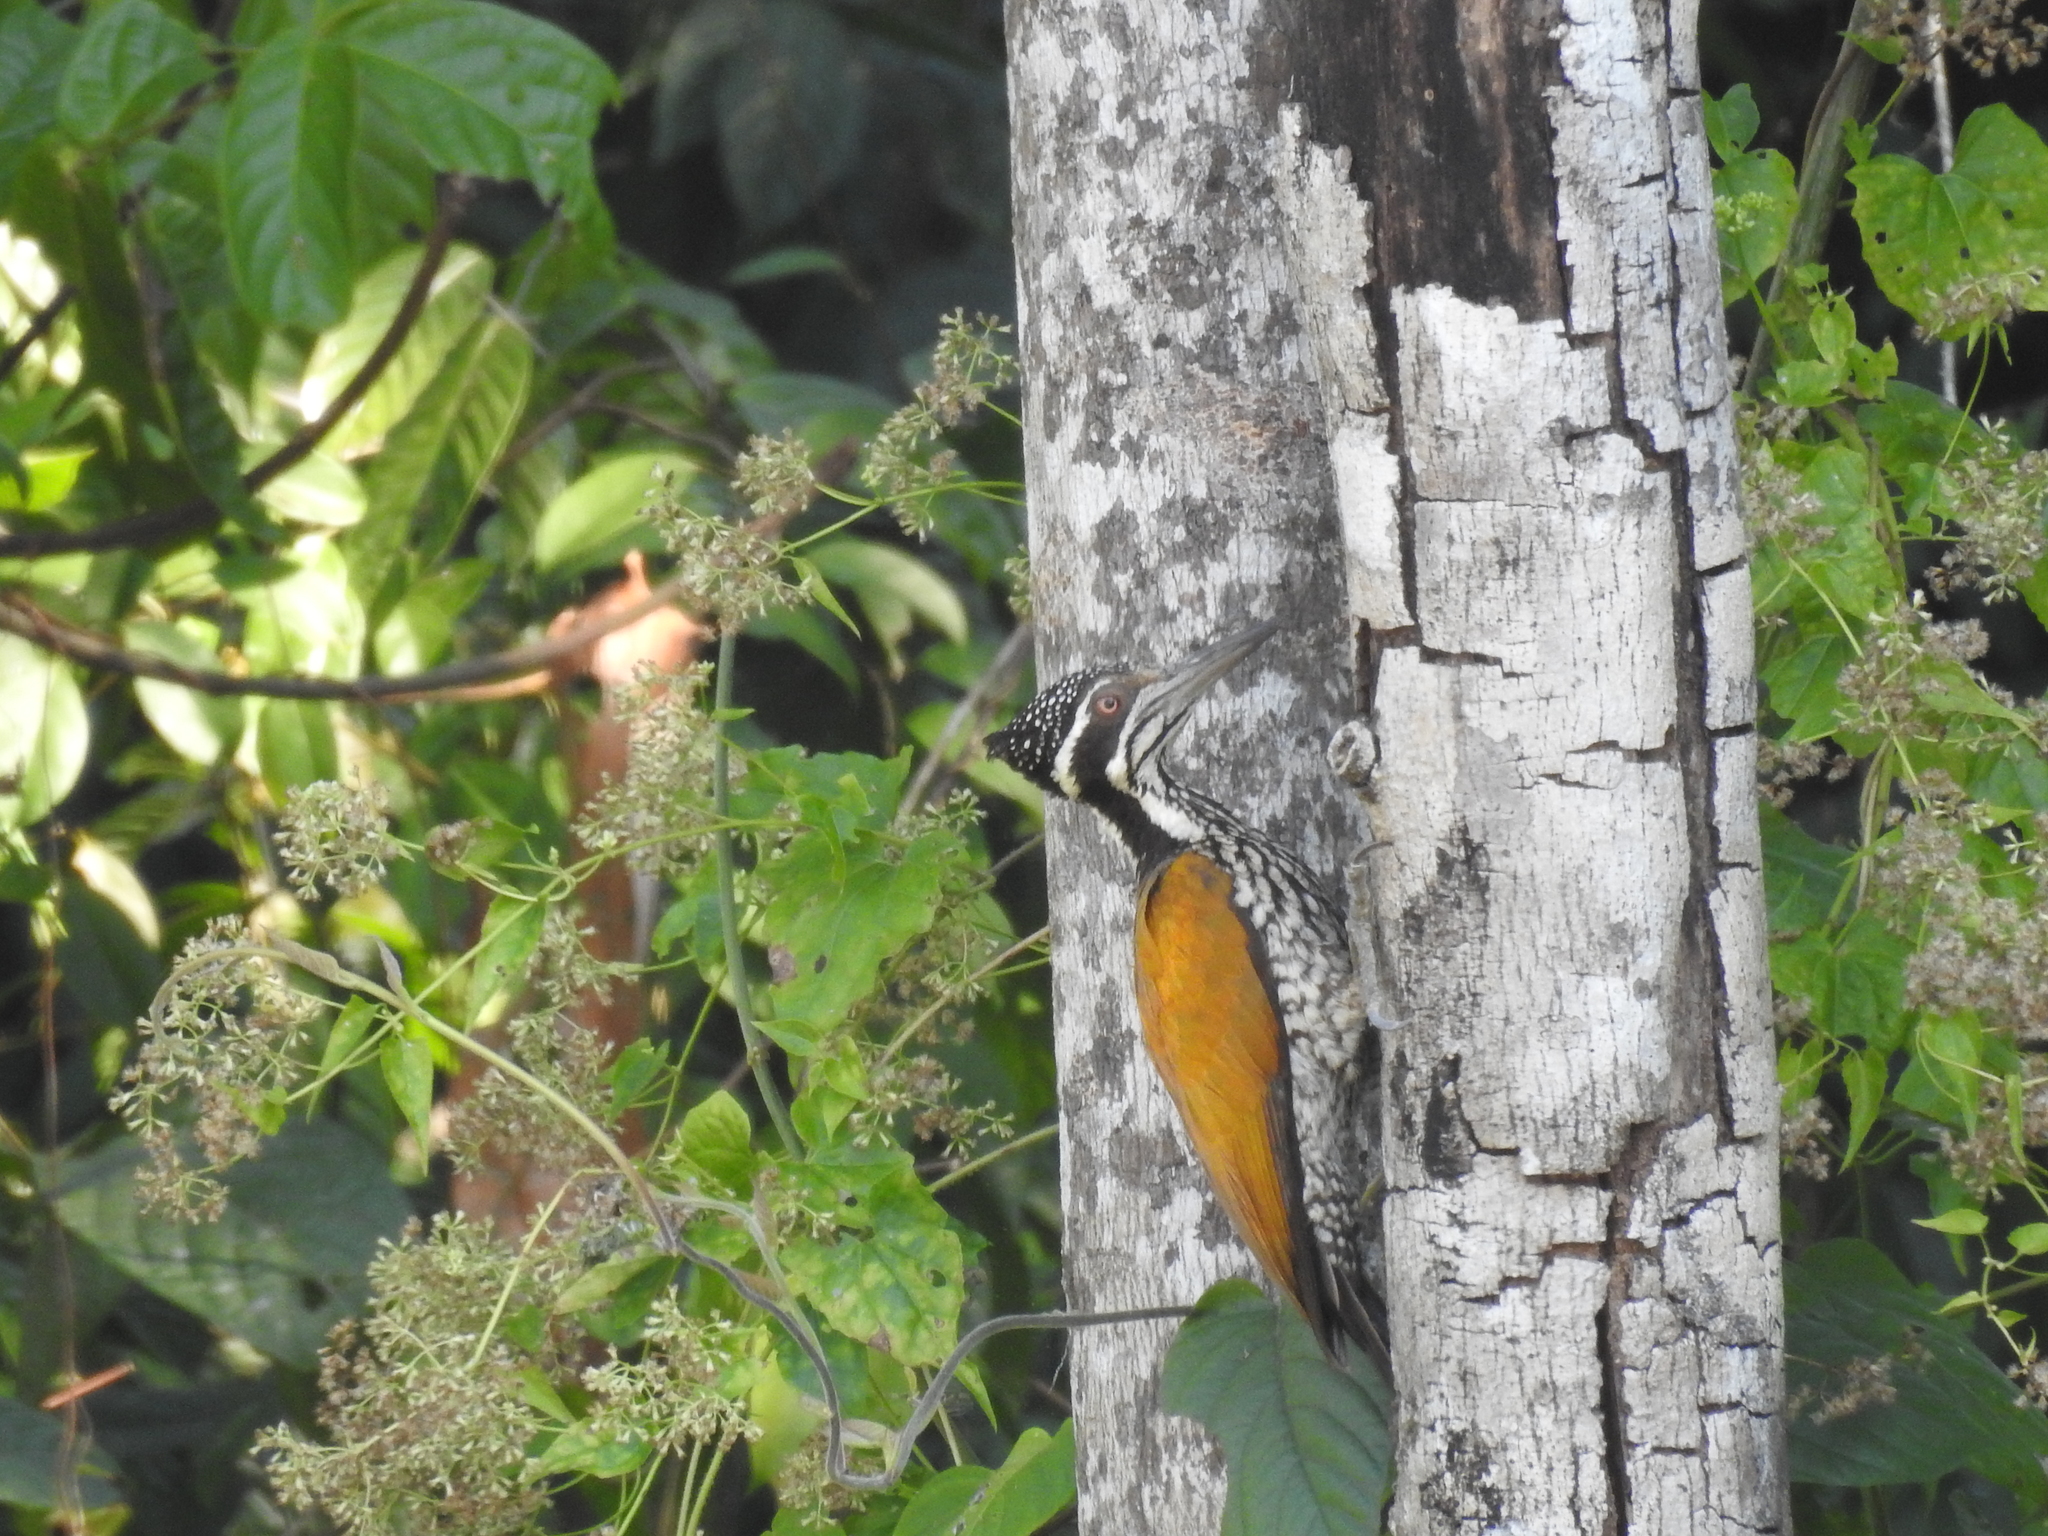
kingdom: Animalia
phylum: Chordata
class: Aves
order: Piciformes
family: Picidae
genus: Chrysocolaptes
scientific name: Chrysocolaptes guttacristatus
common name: Greater flameback
